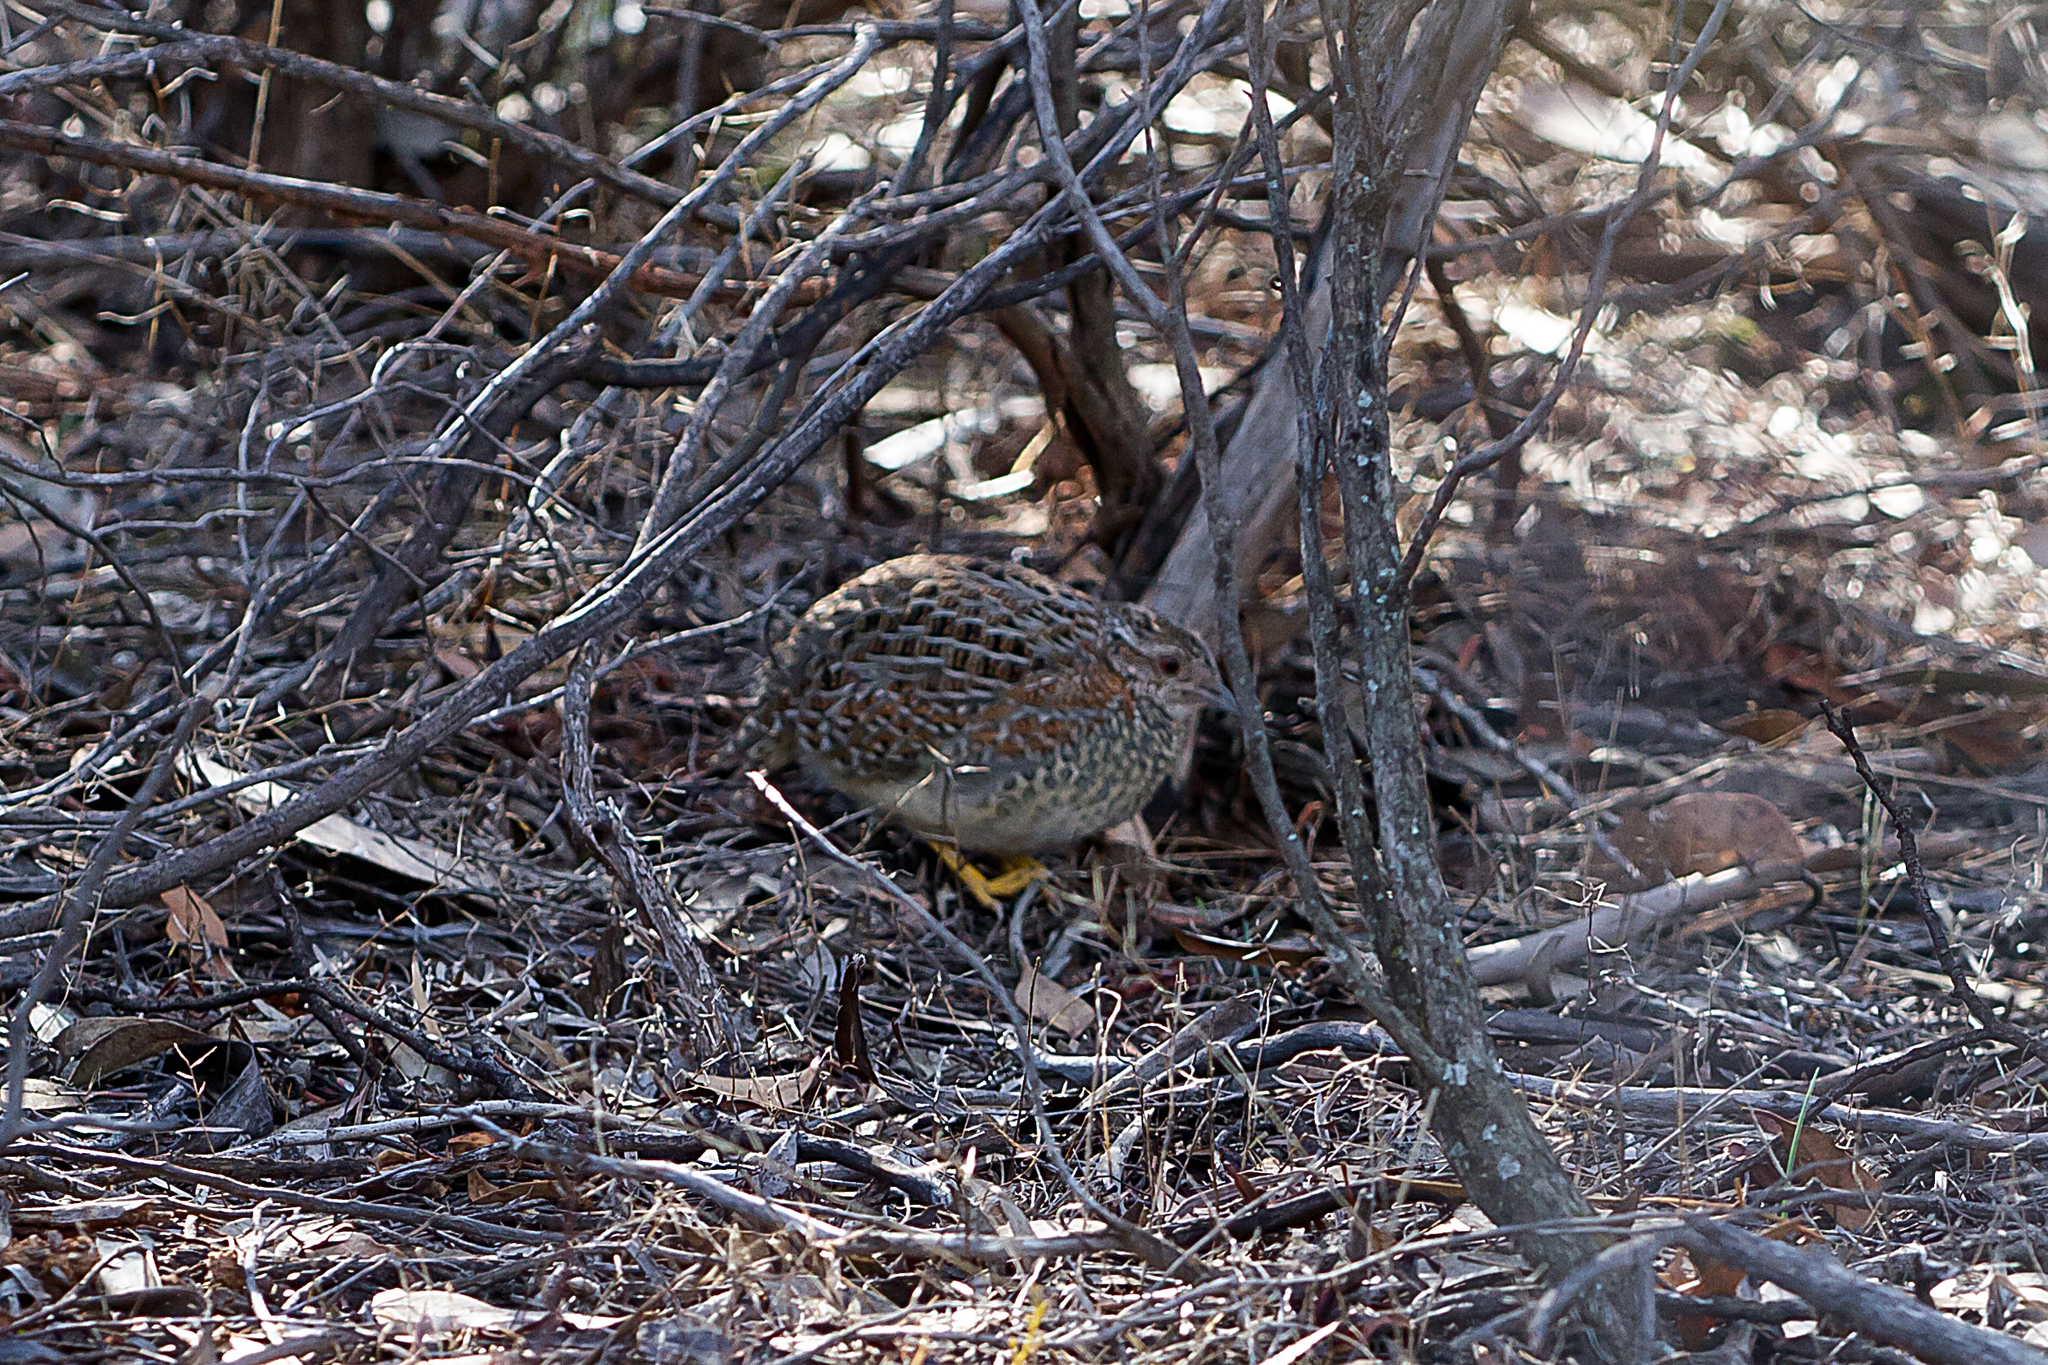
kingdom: Animalia
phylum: Chordata
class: Aves
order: Charadriiformes
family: Turnicidae
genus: Turnix
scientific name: Turnix varius
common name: Painted buttonquail
